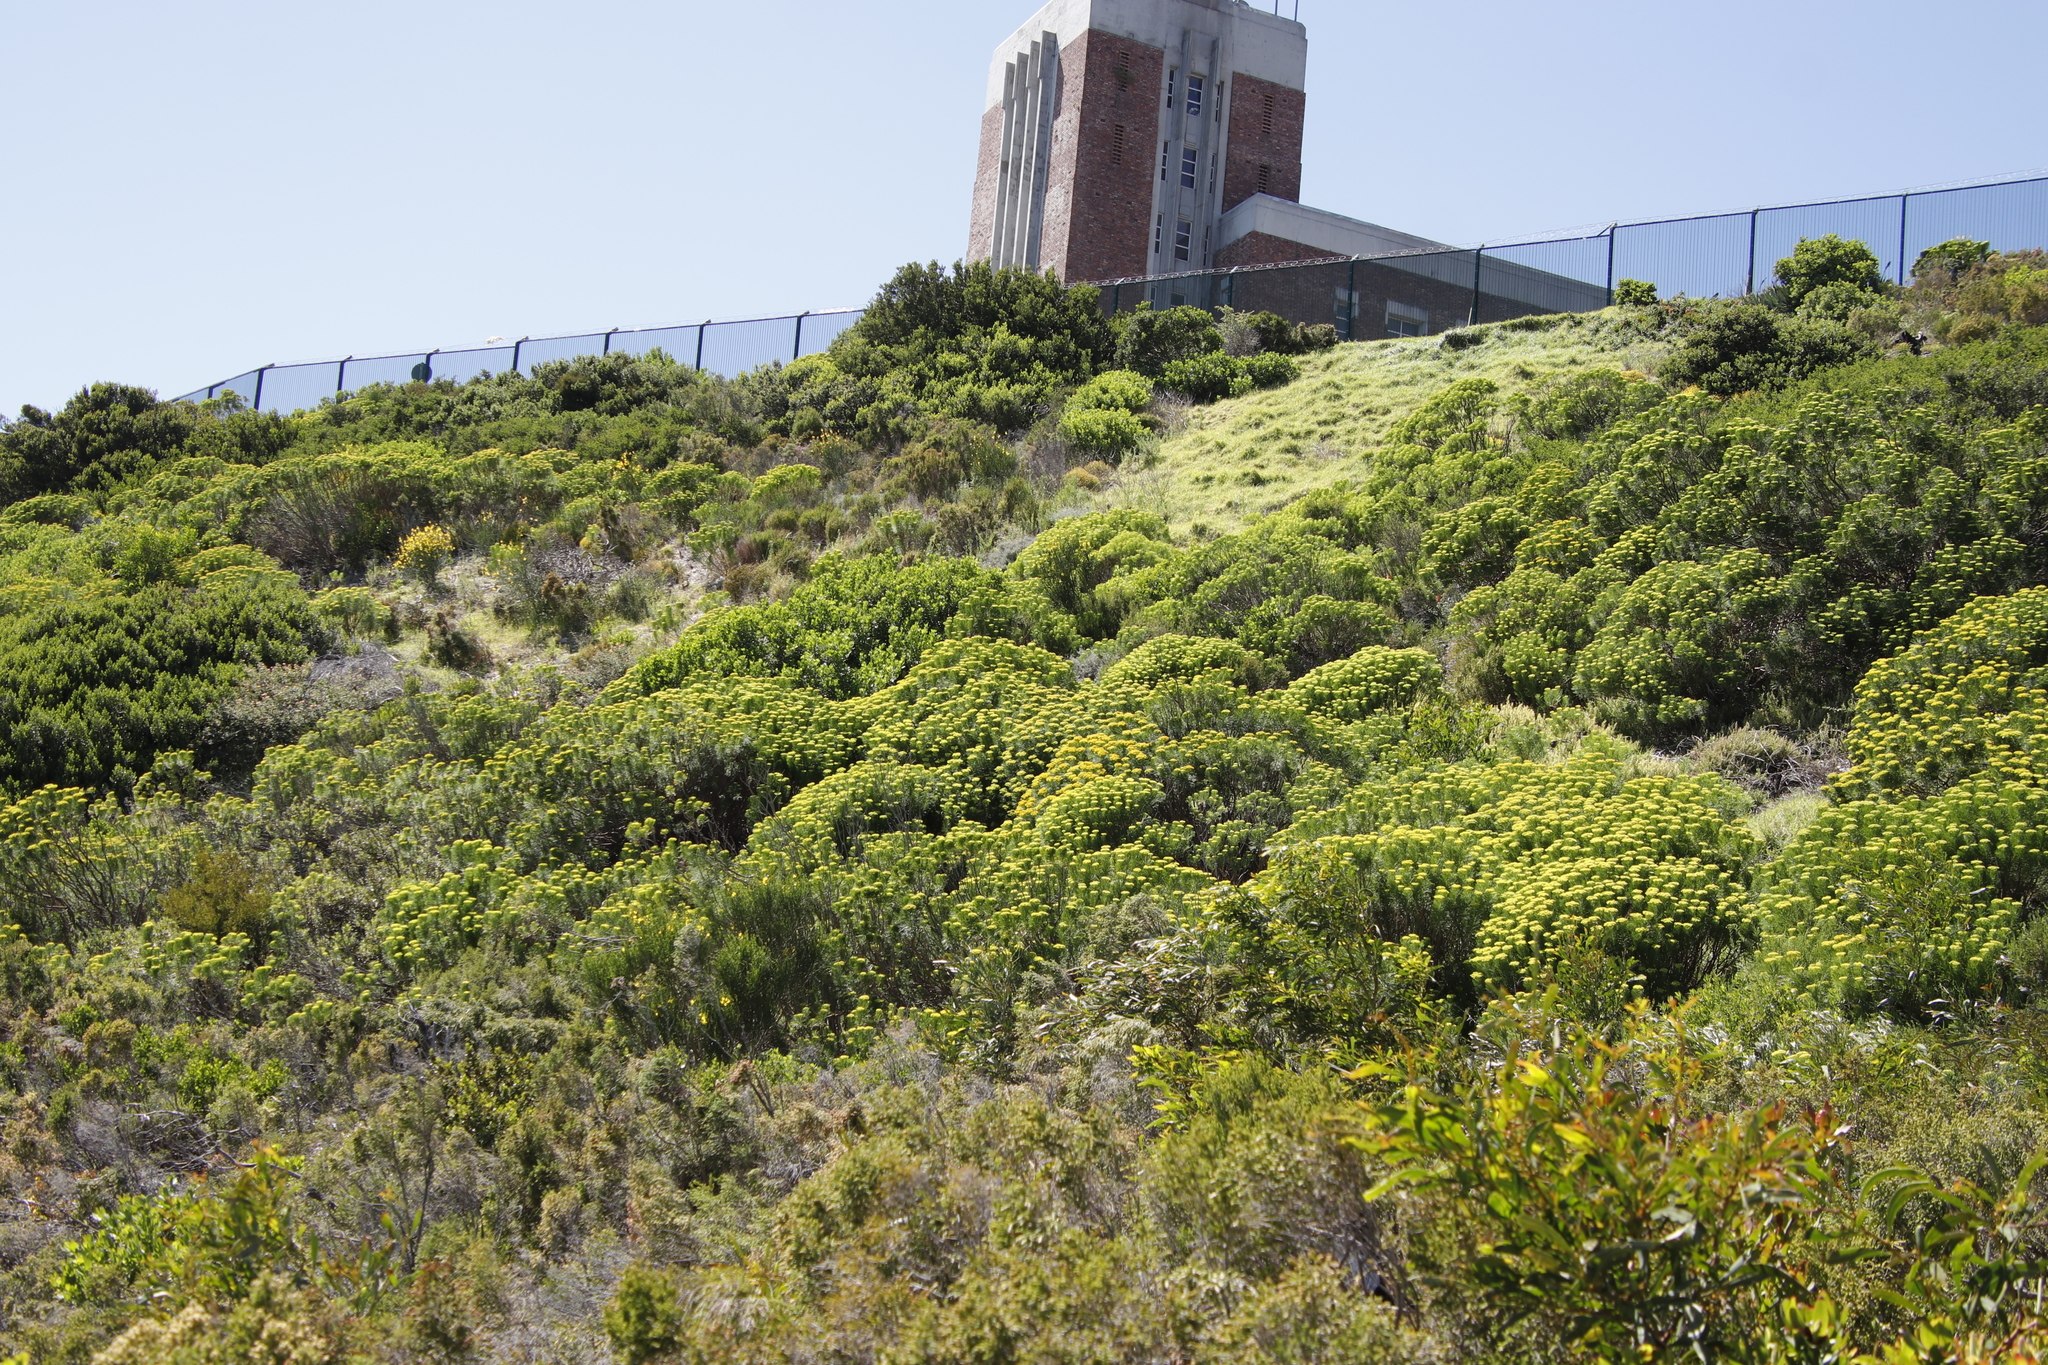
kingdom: Plantae
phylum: Tracheophyta
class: Magnoliopsida
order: Asterales
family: Asteraceae
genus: Hymenolepis
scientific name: Hymenolepis crithmifolia
